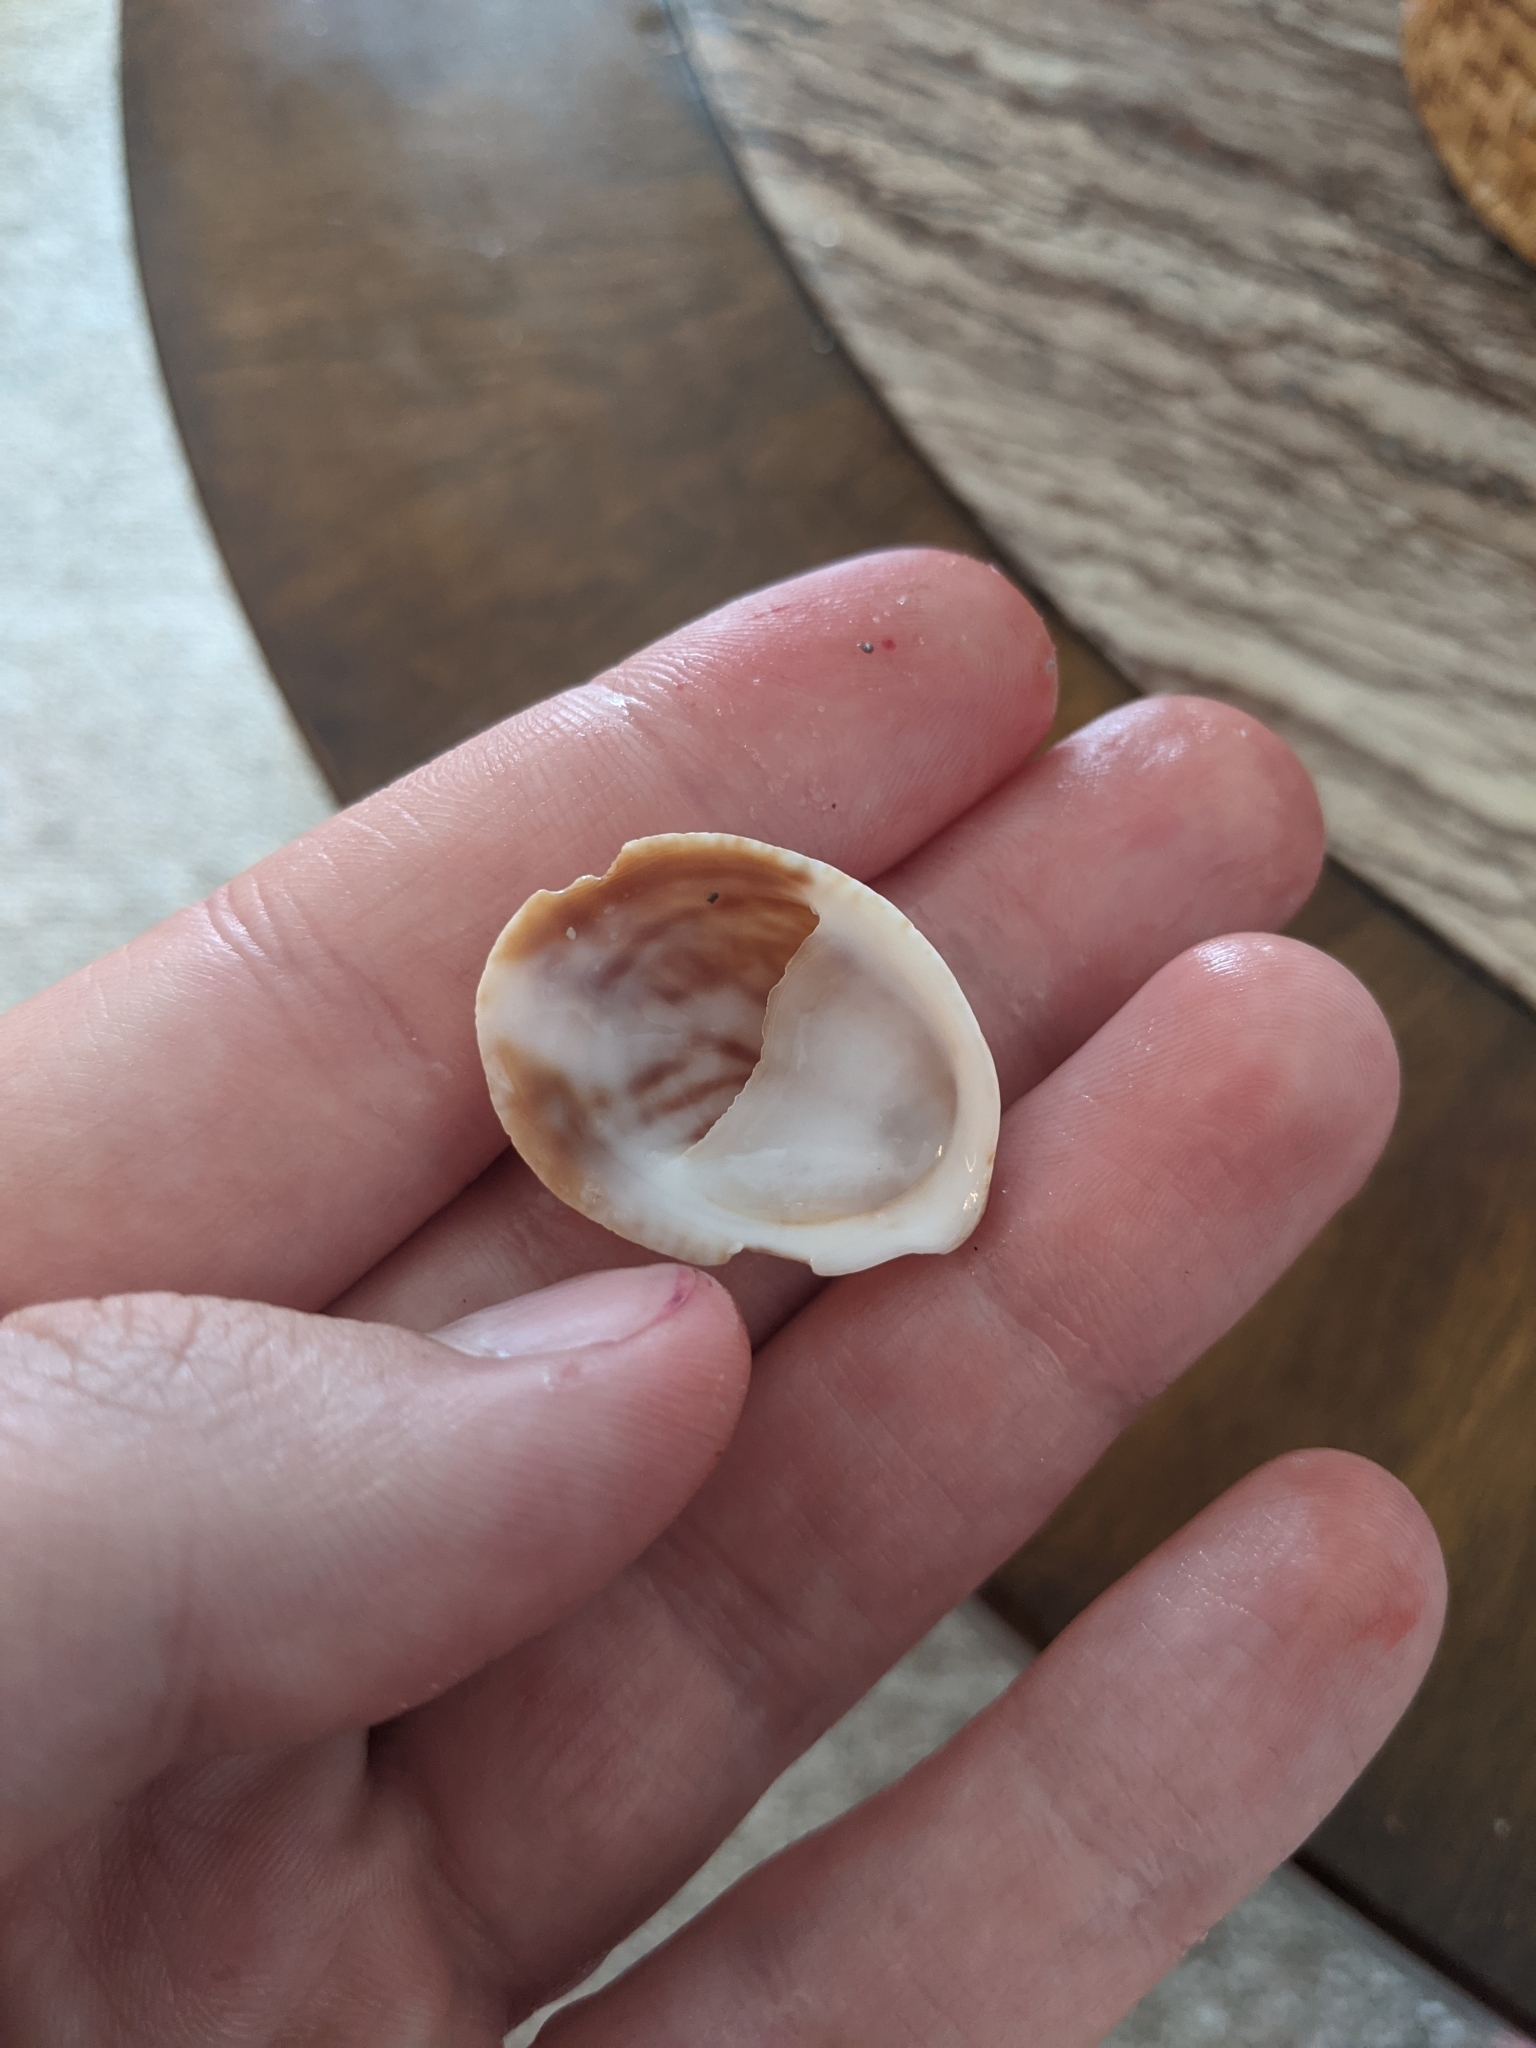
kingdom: Animalia
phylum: Mollusca
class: Gastropoda
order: Littorinimorpha
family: Calyptraeidae
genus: Crepidula
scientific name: Crepidula fornicata
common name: Slipper limpet
